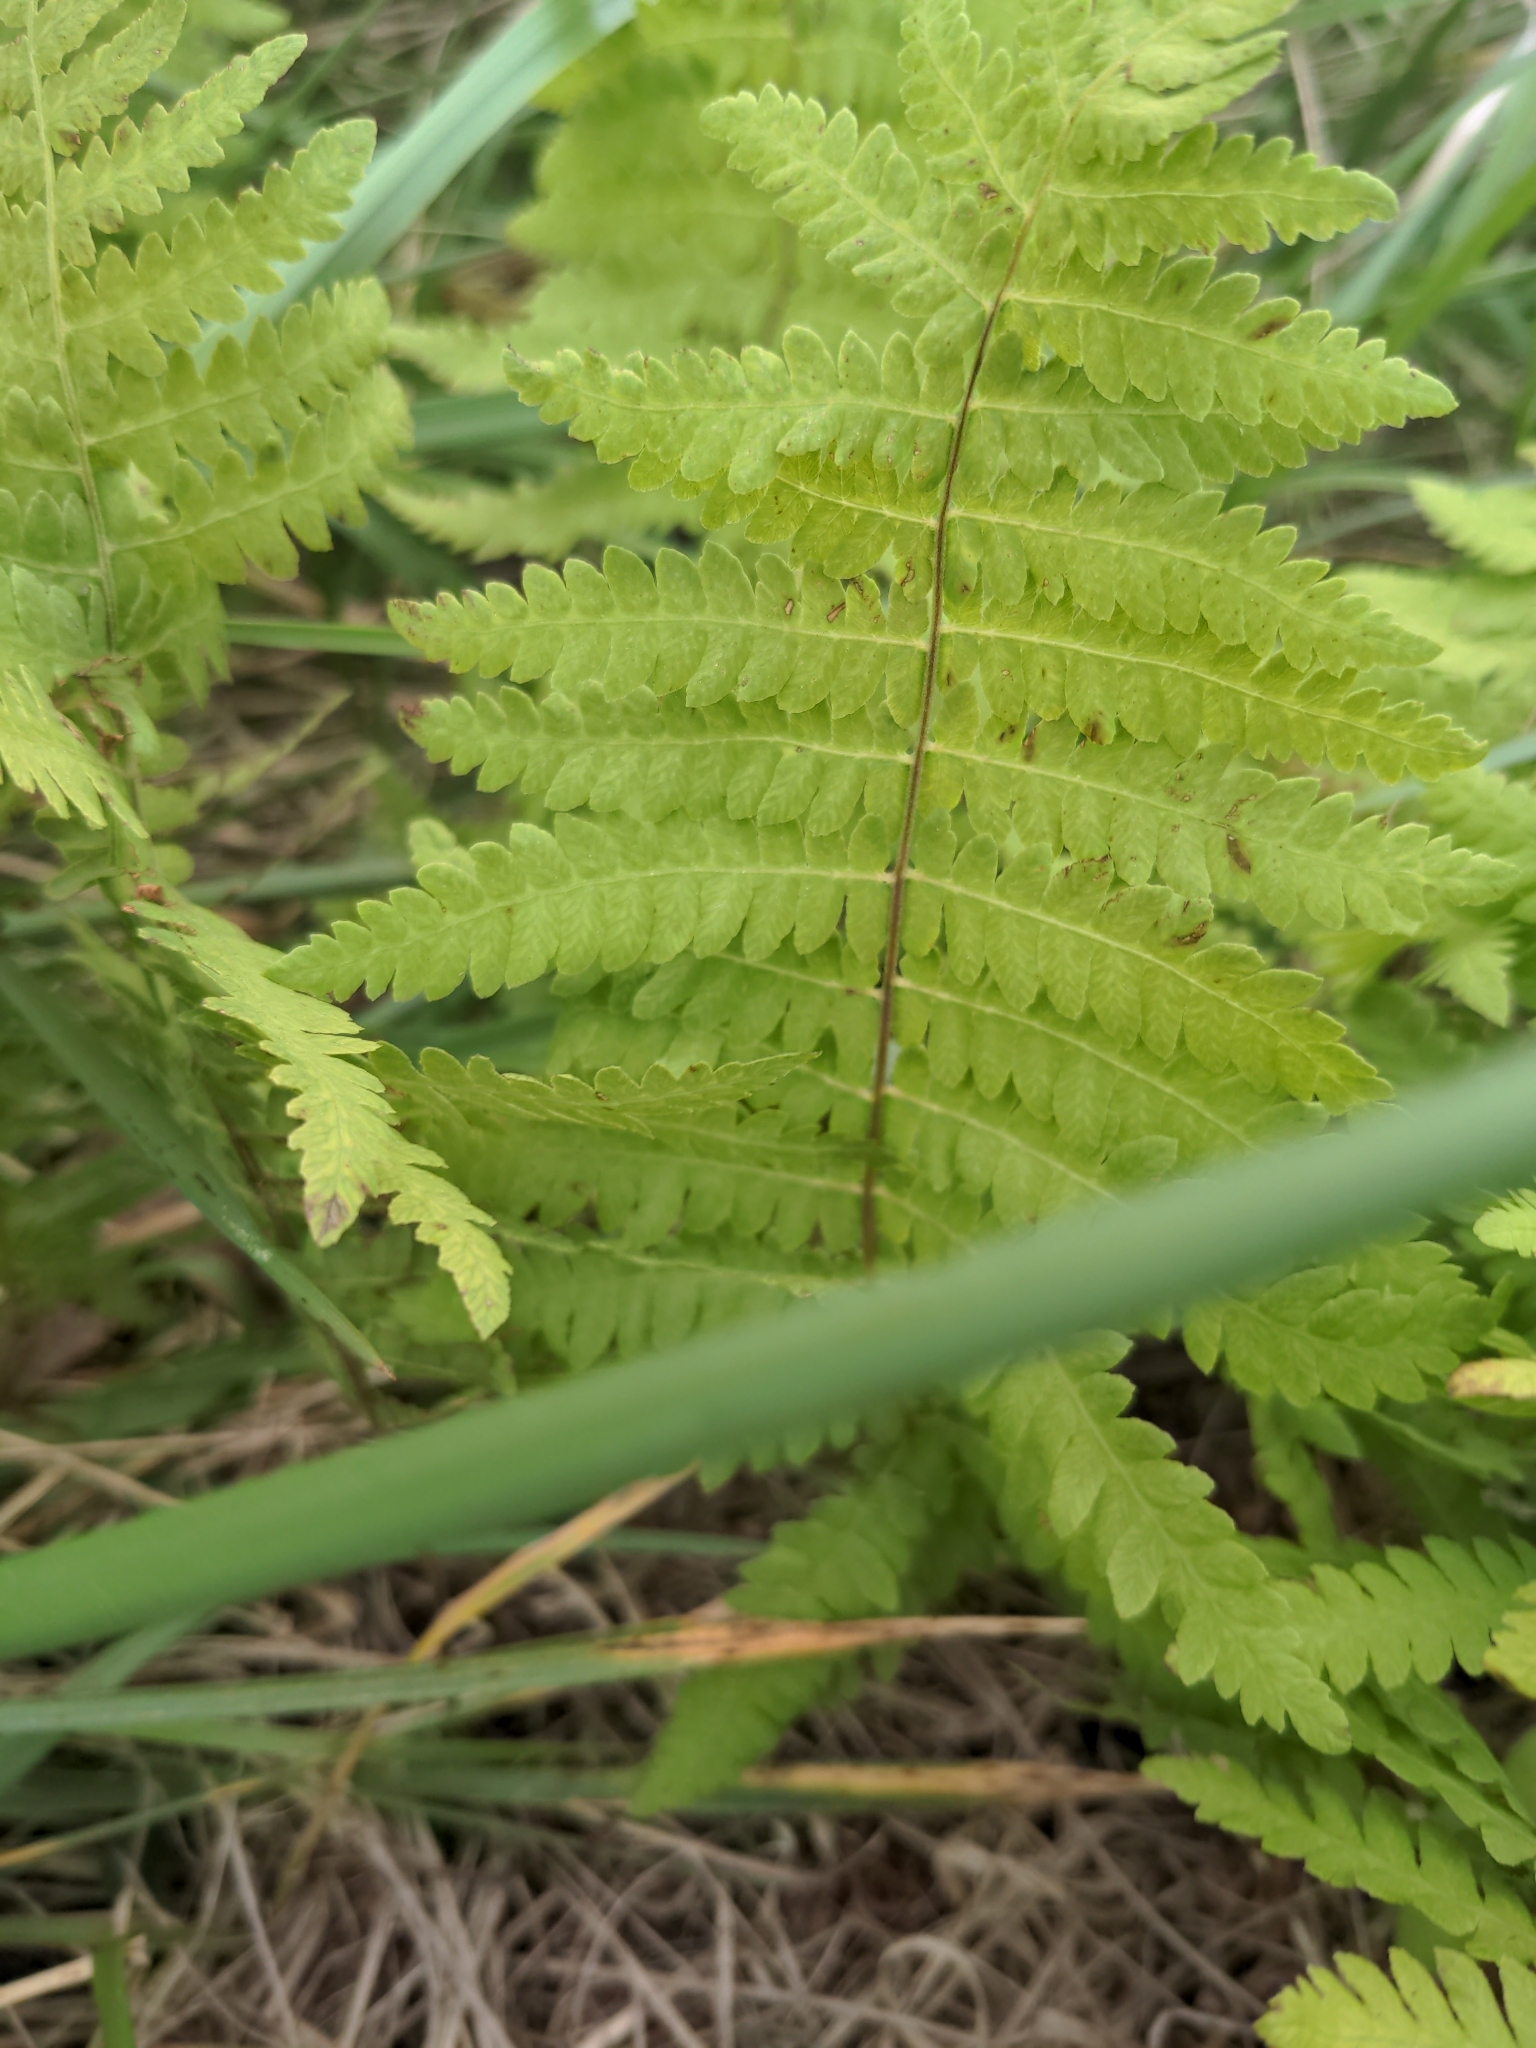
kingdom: Plantae
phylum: Tracheophyta
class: Polypodiopsida
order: Polypodiales
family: Thelypteridaceae
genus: Thelypteris
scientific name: Thelypteris palustris
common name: Marsh fern
